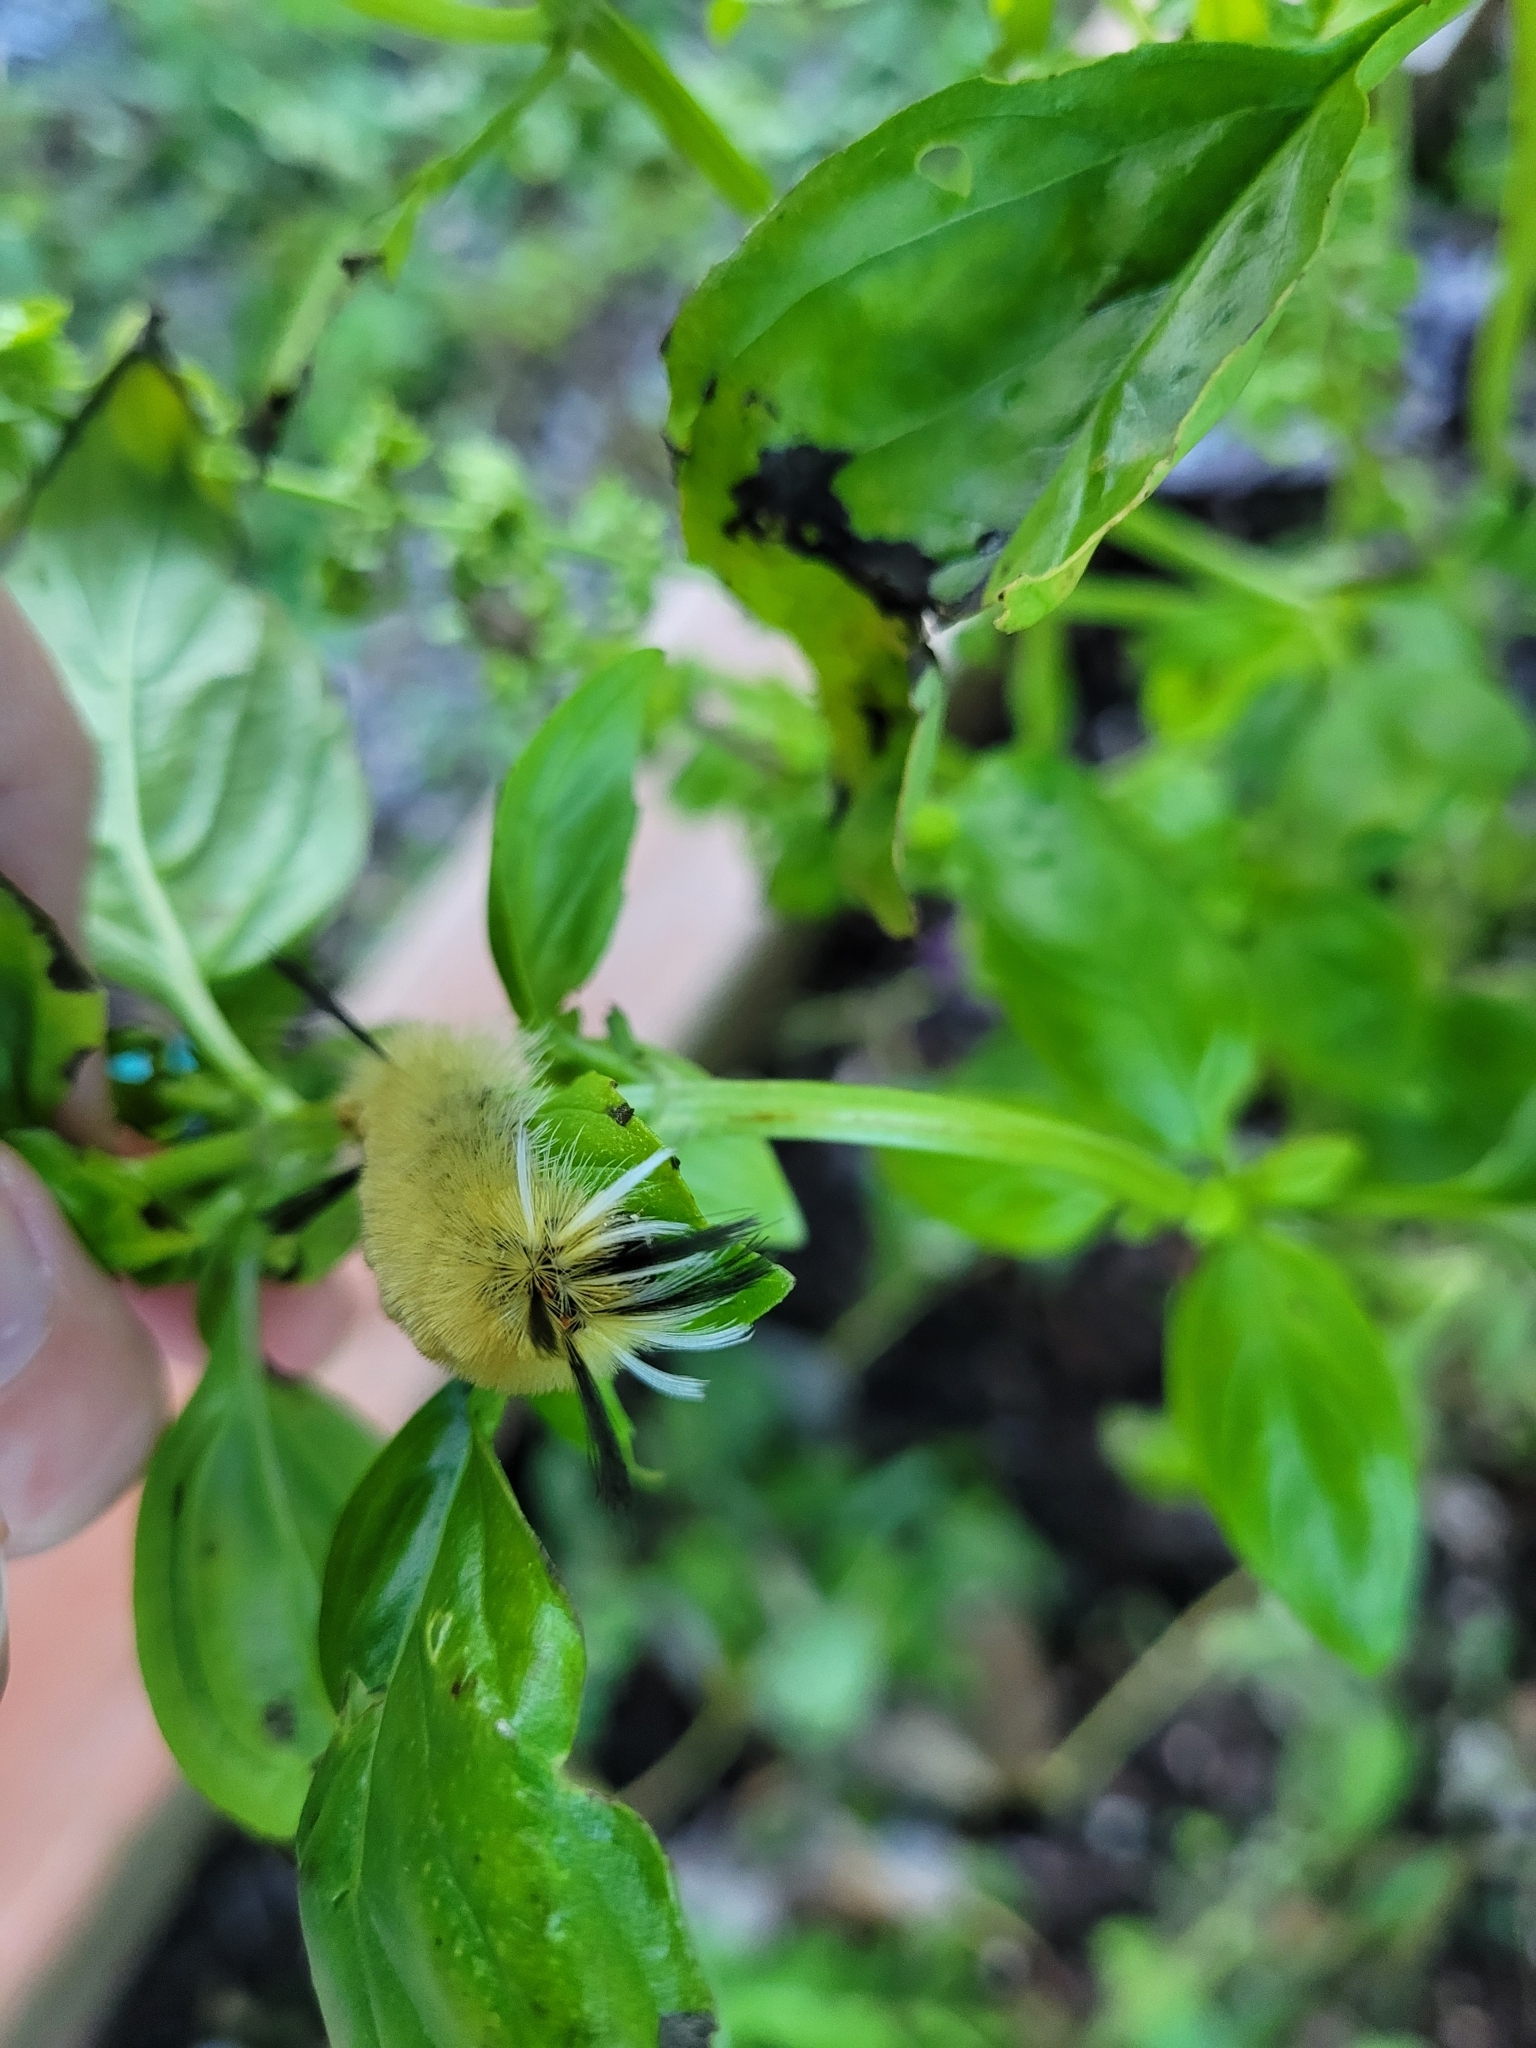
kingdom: Animalia
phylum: Arthropoda
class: Insecta
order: Lepidoptera
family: Erebidae
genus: Halysidota
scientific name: Halysidota tessellaris
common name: Banded tussock moth
